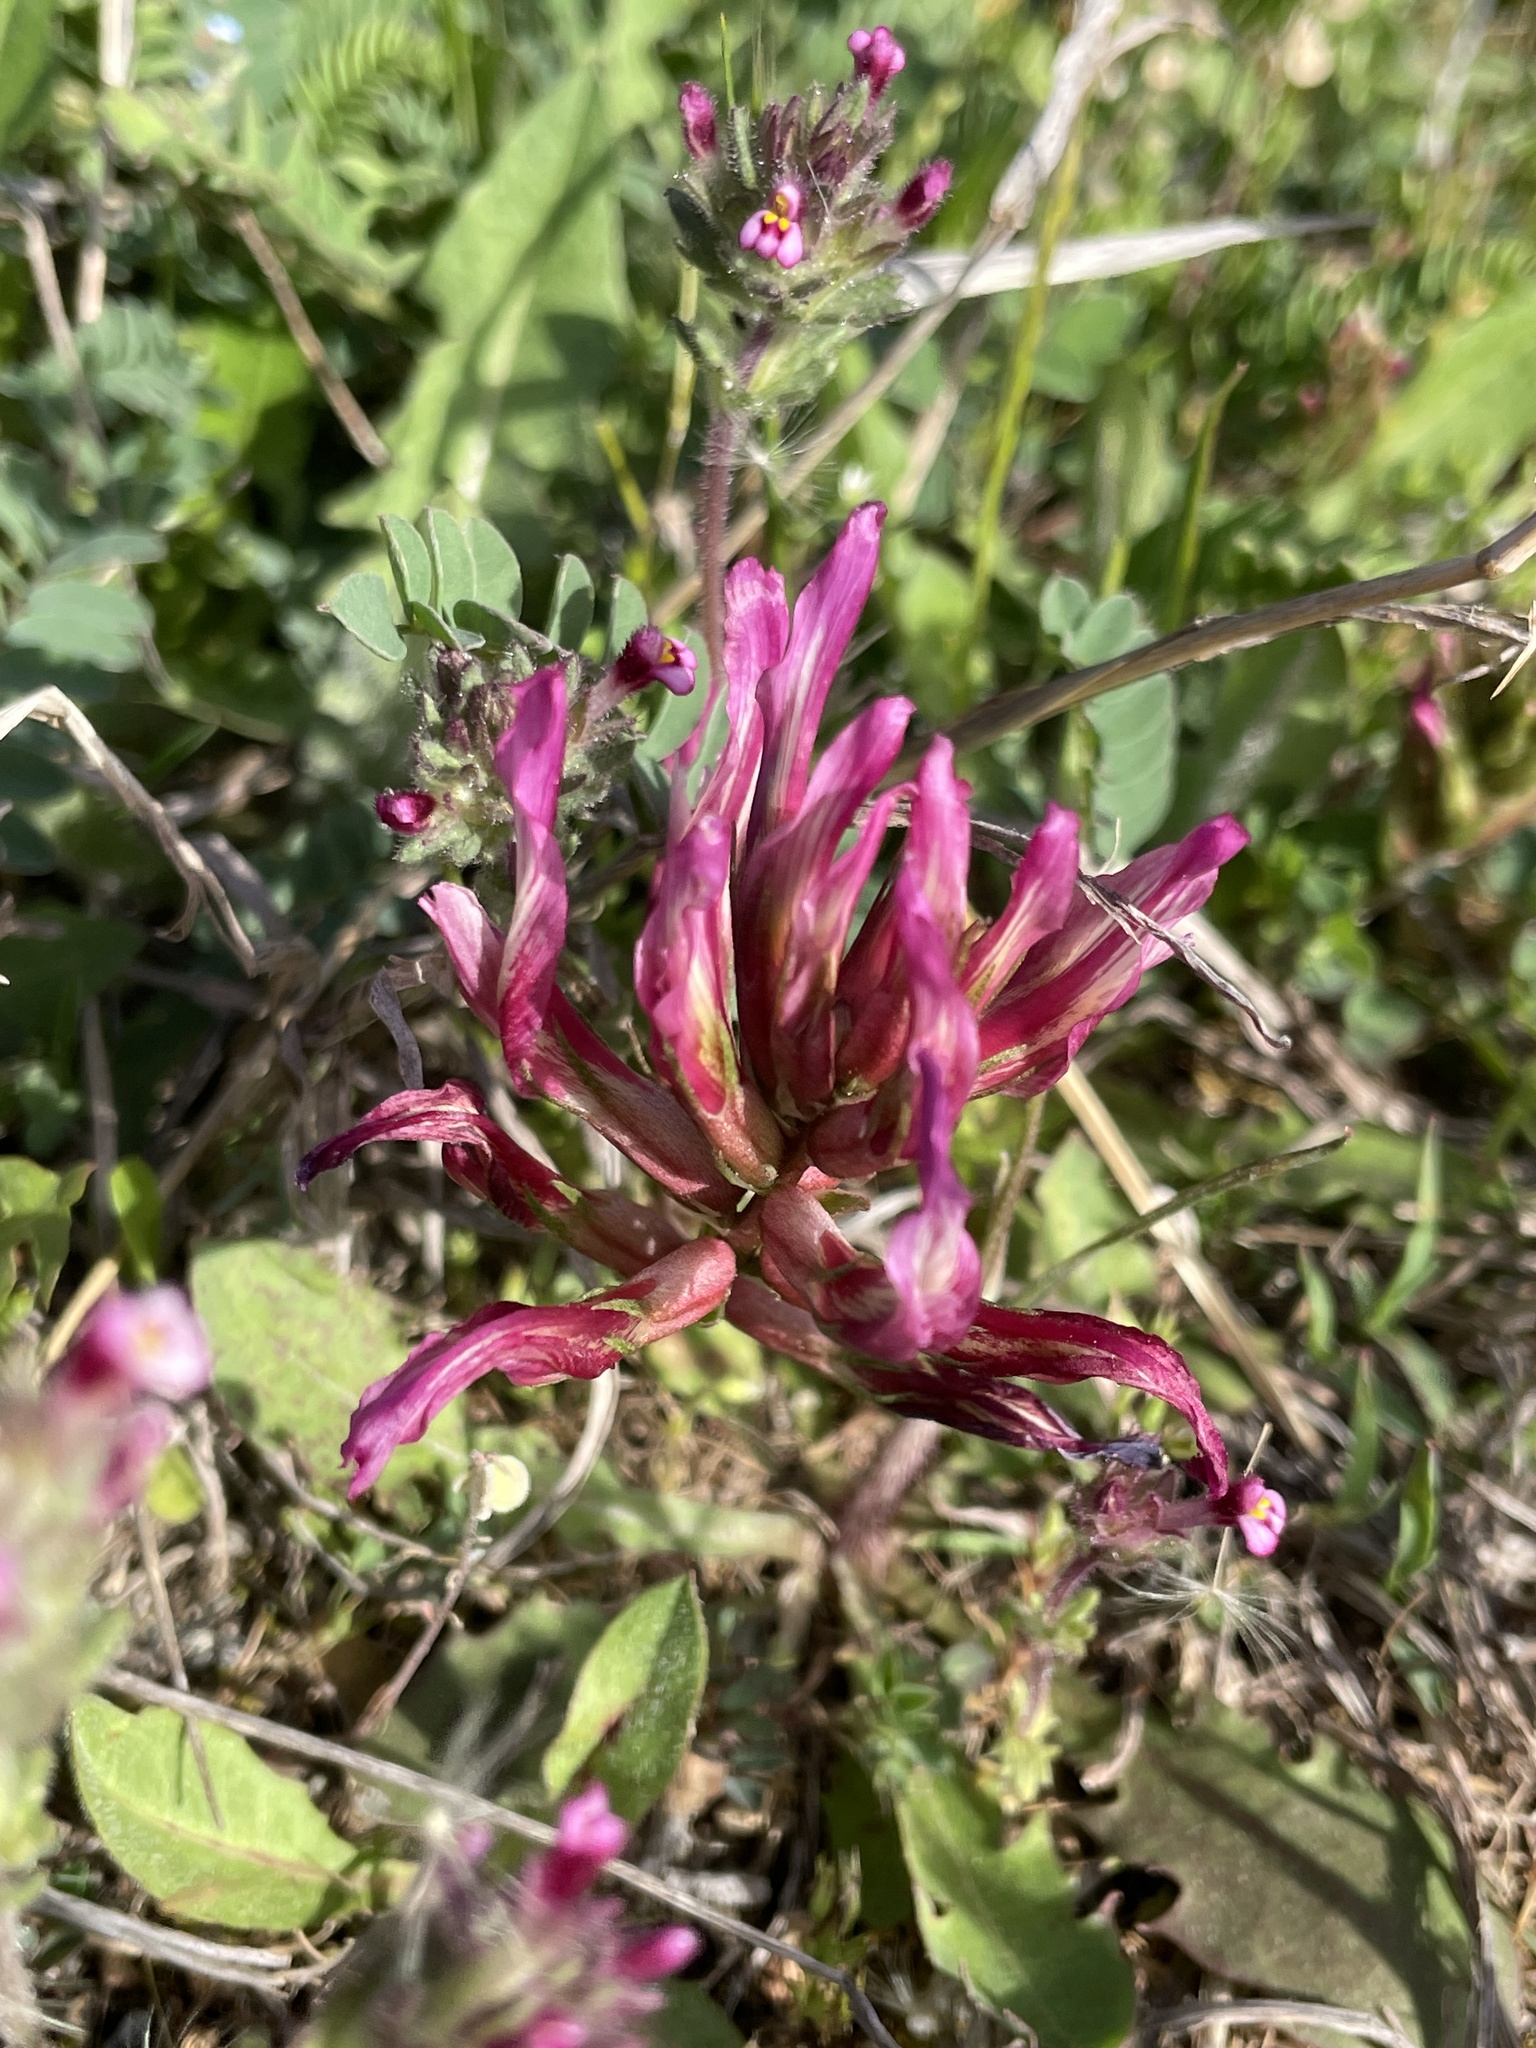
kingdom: Plantae
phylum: Tracheophyta
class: Magnoliopsida
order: Fabales
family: Fabaceae
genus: Astragalus
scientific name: Astragalus monspessulanus
